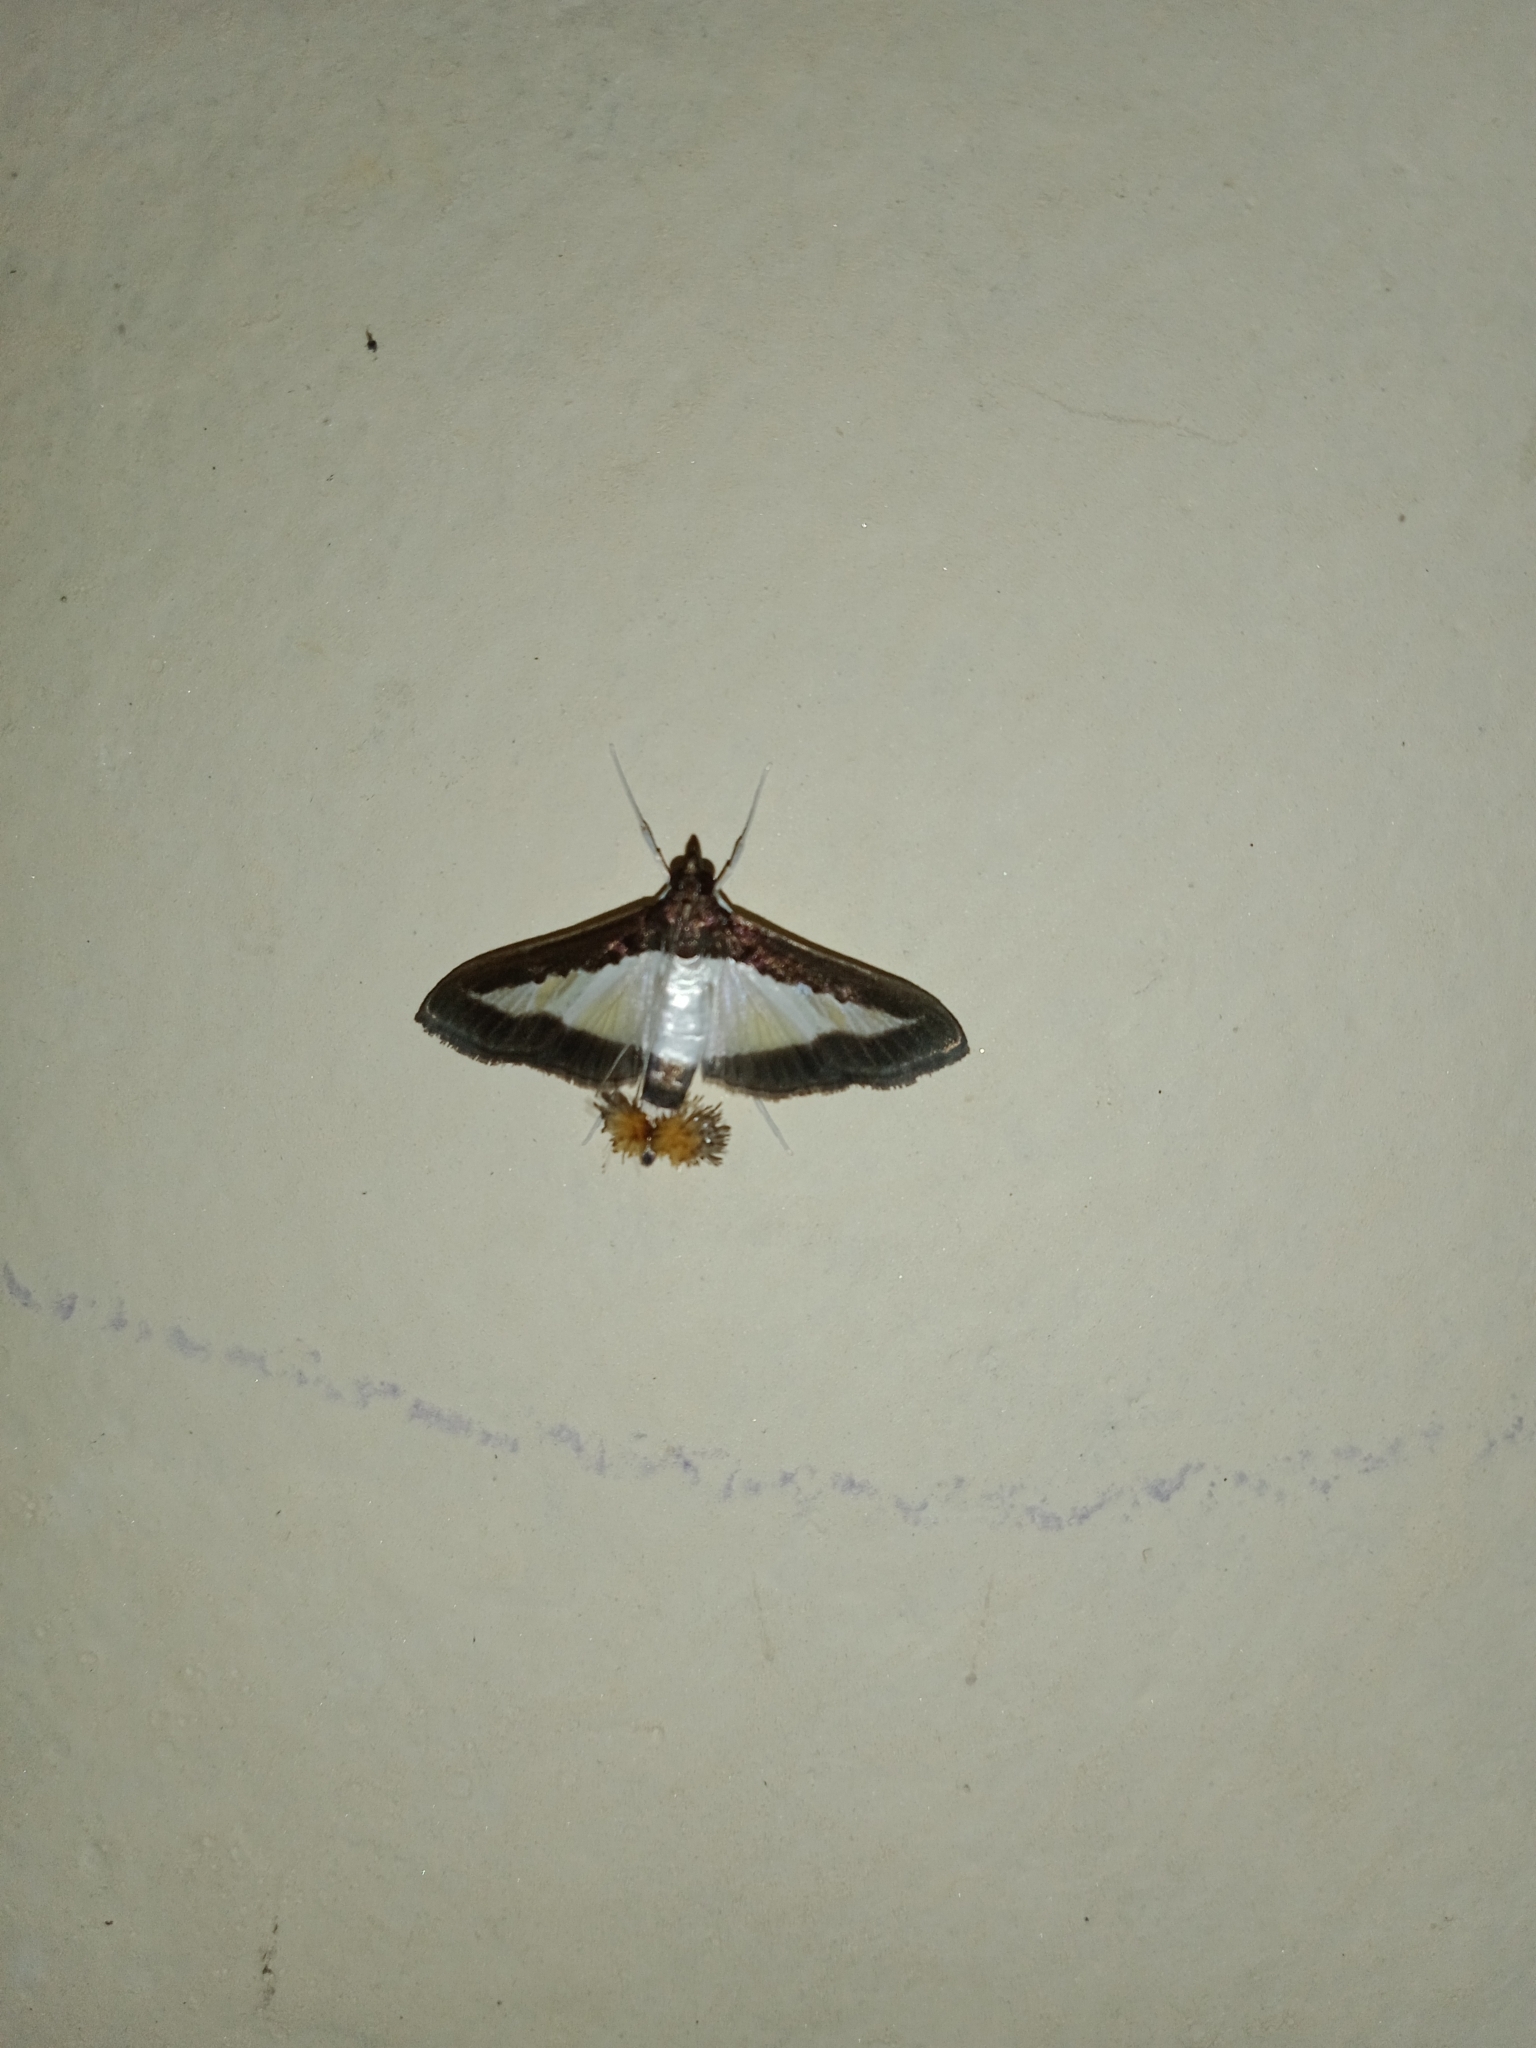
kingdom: Animalia
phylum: Arthropoda
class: Insecta
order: Lepidoptera
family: Crambidae
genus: Diaphania
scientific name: Diaphania indica
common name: Cucumber moth
